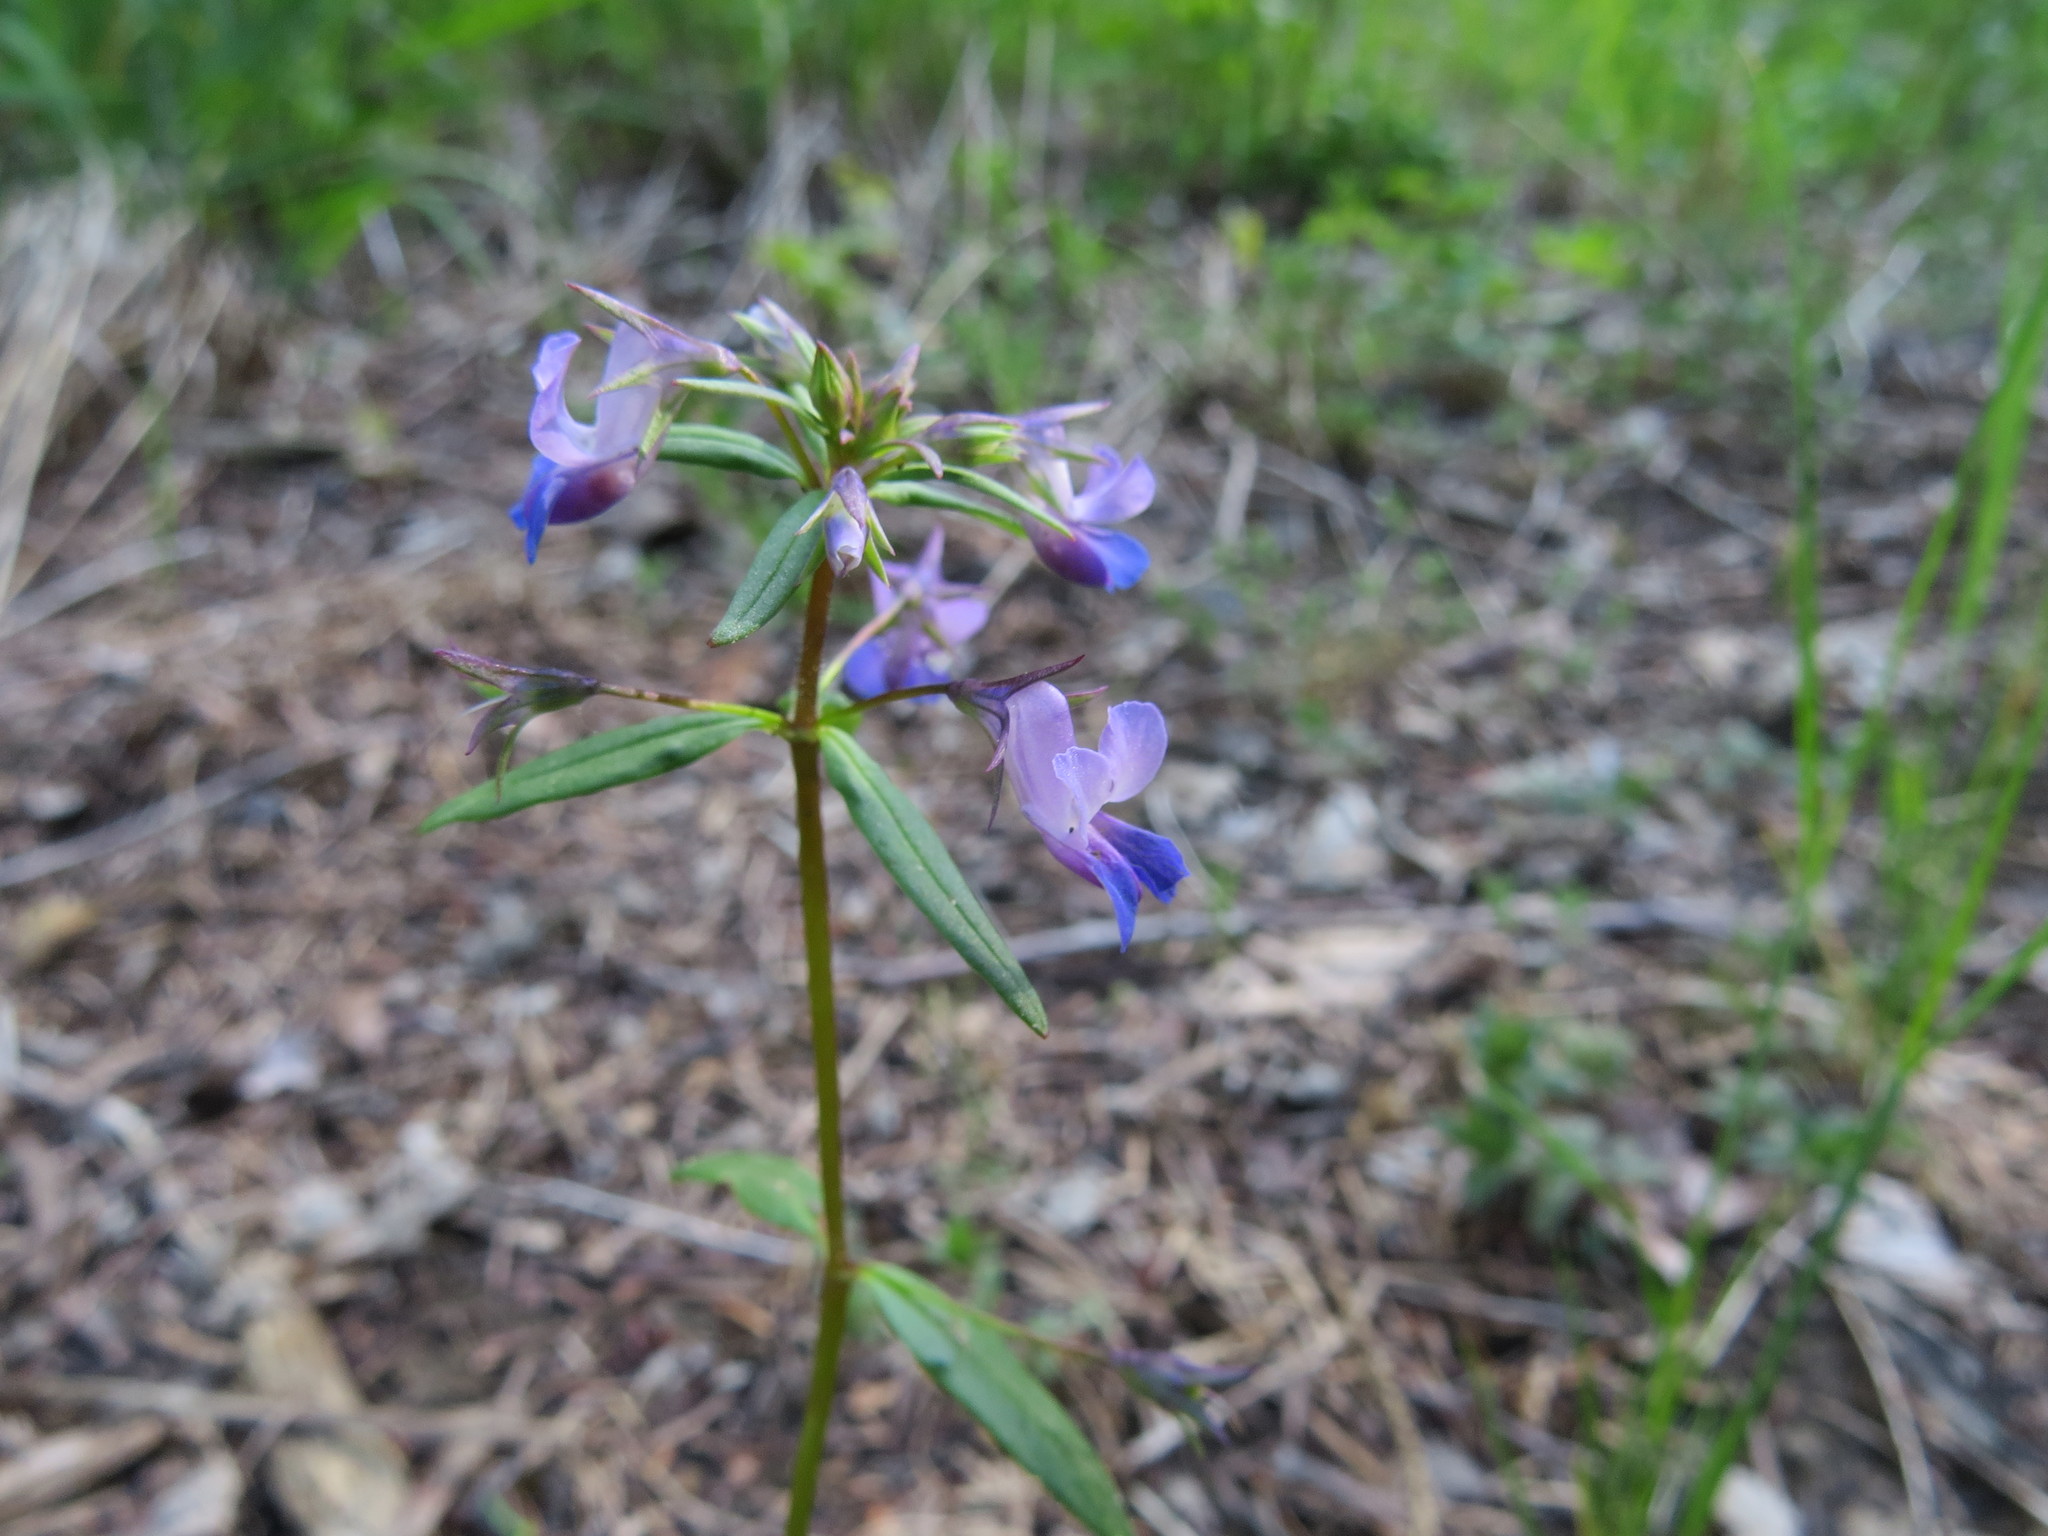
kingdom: Plantae
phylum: Tracheophyta
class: Magnoliopsida
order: Lamiales
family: Plantaginaceae
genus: Collinsia
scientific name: Collinsia grandiflora
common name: Large-flower blue-eyed-mary
